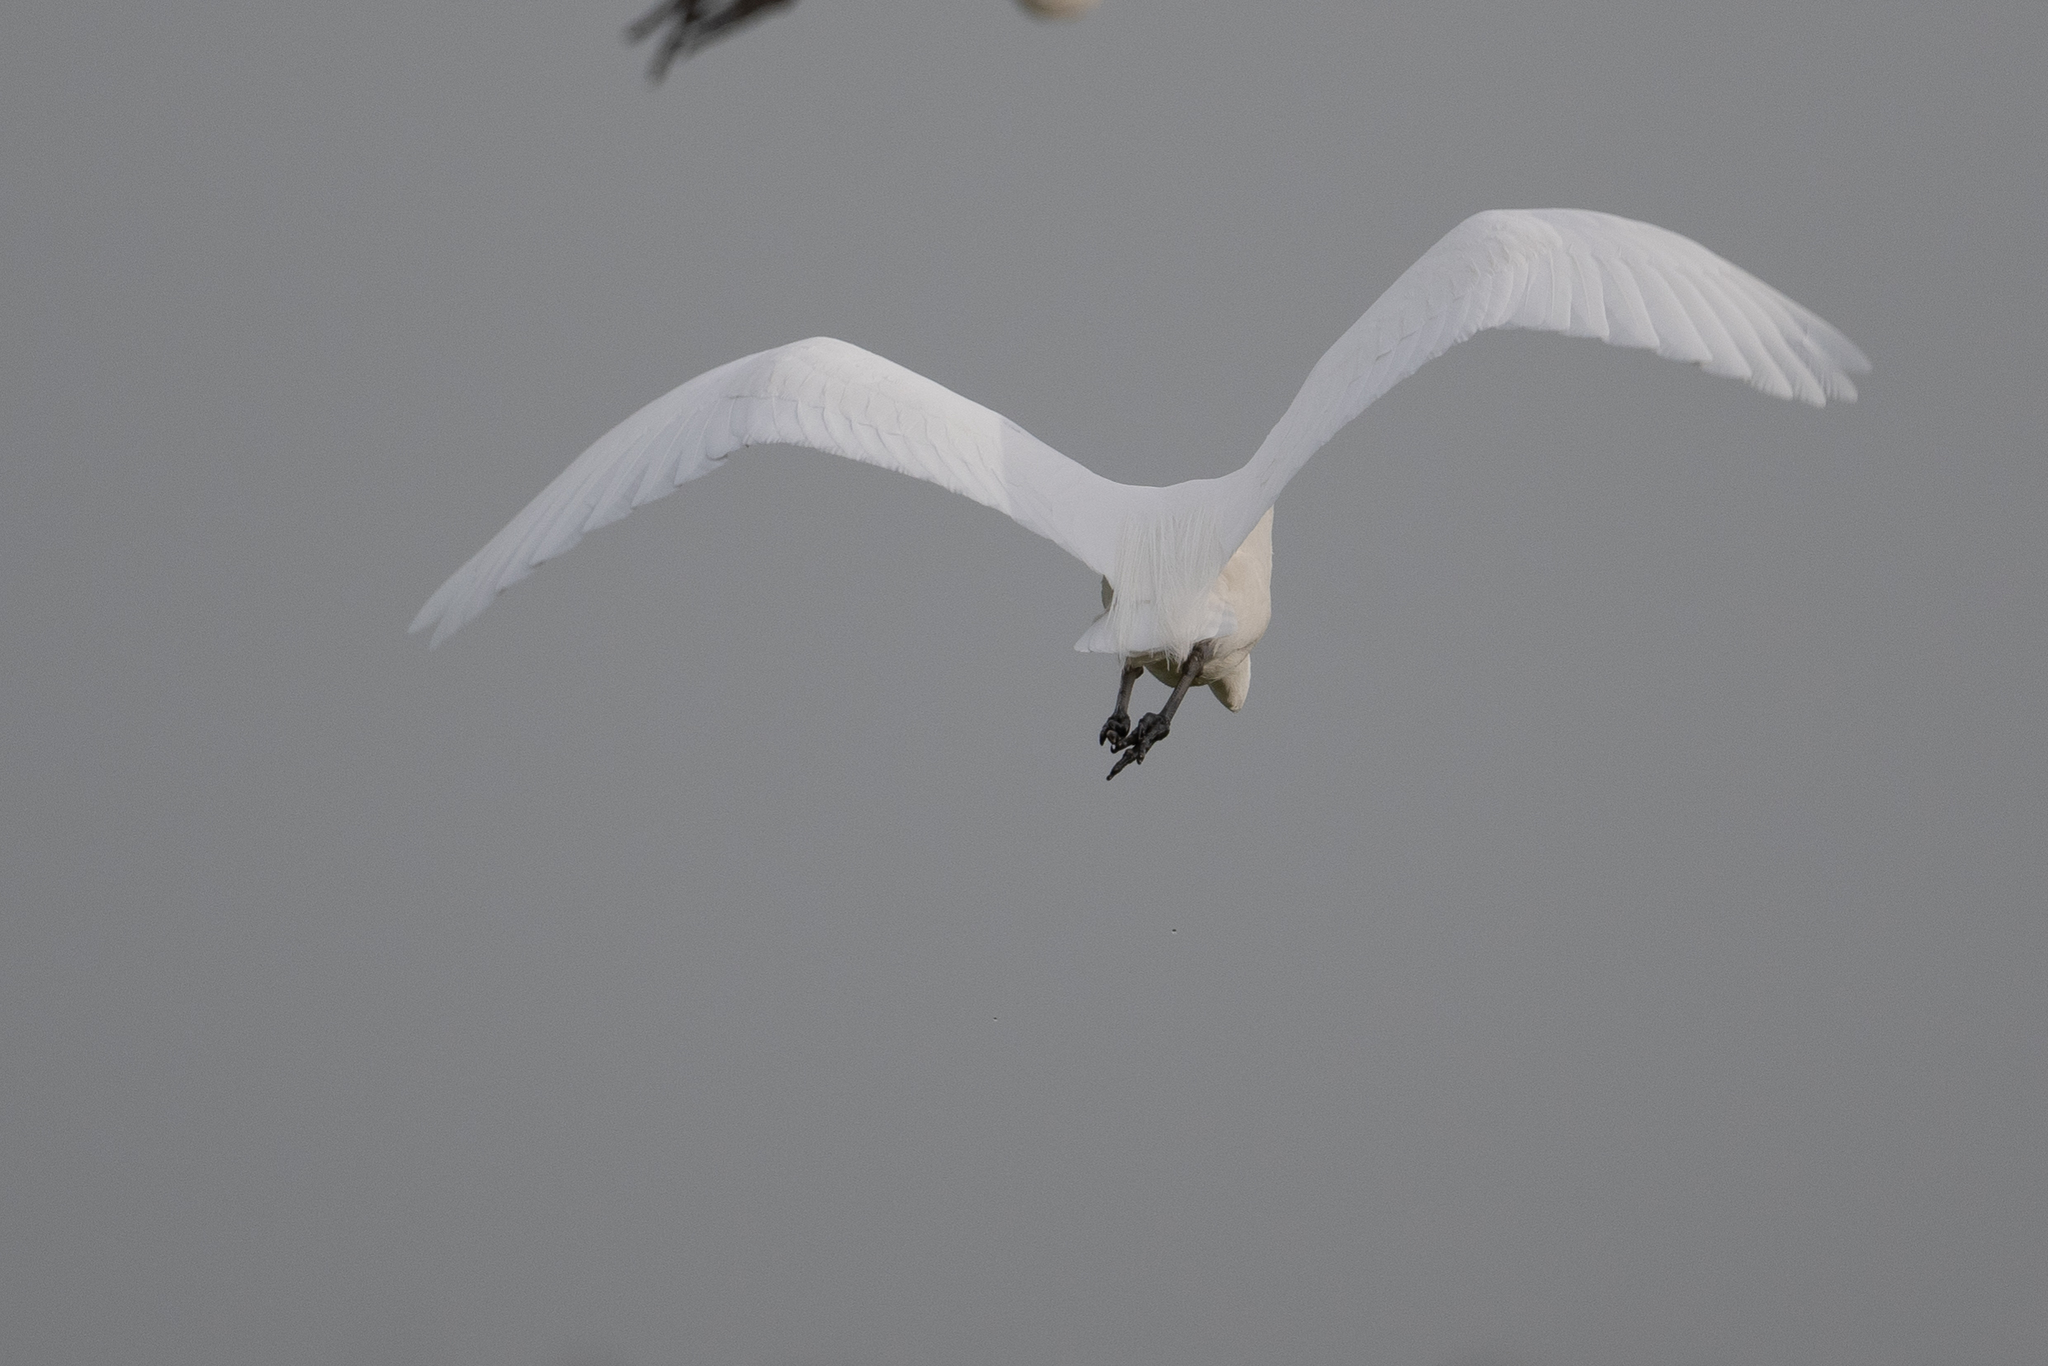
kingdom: Animalia
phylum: Chordata
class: Aves
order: Pelecaniformes
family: Ardeidae
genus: Ardea
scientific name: Ardea alba
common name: Great egret
